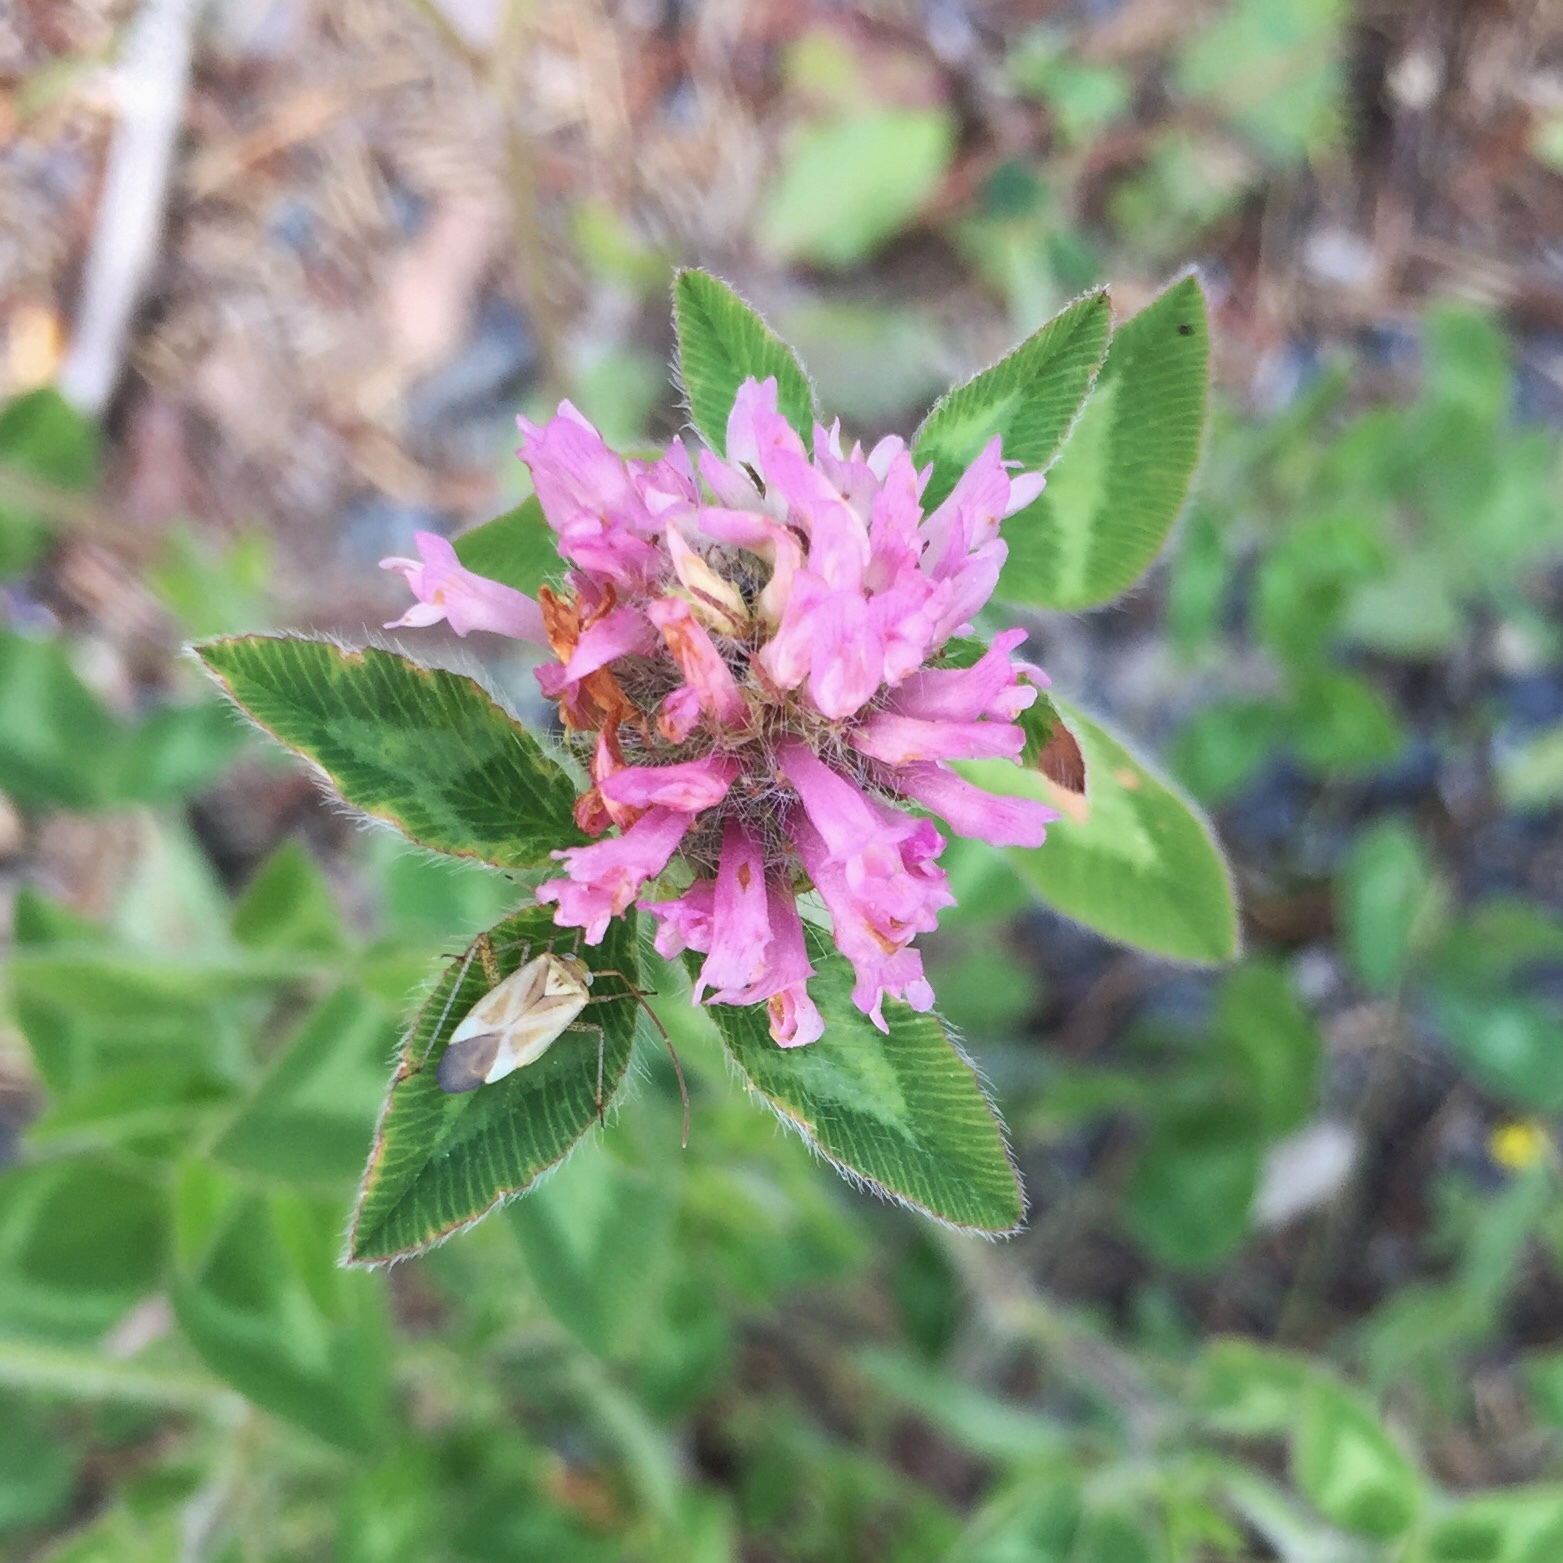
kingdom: Animalia
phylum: Arthropoda
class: Insecta
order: Hemiptera
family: Miridae
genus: Adelphocoris
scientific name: Adelphocoris lineolatus
